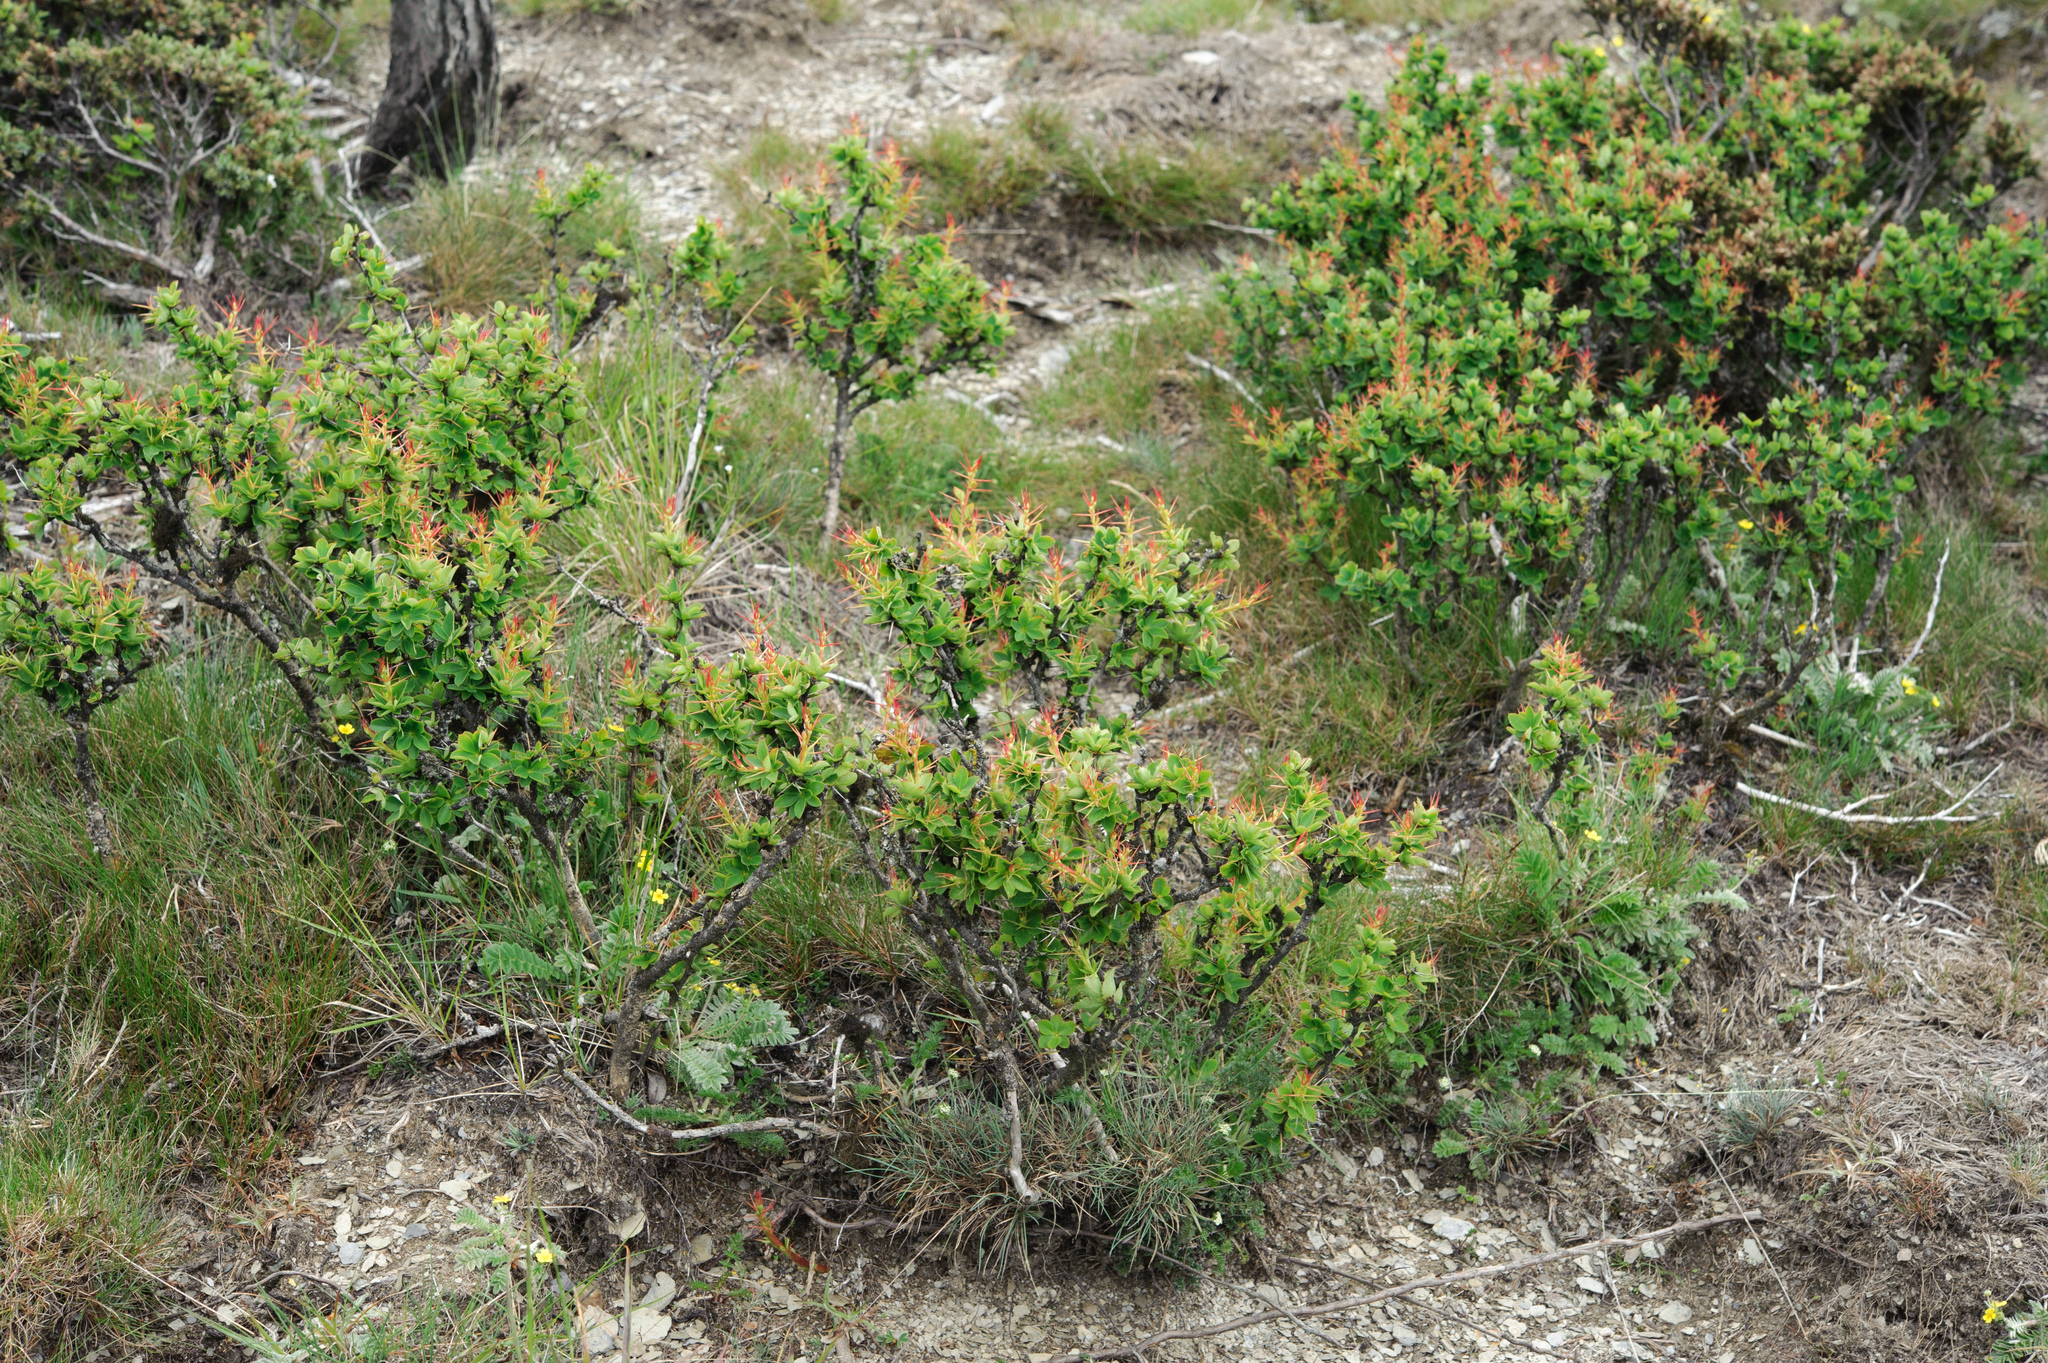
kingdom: Plantae
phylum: Tracheophyta
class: Magnoliopsida
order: Ranunculales
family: Berberidaceae
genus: Berberis
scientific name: Berberis morrisonensis
